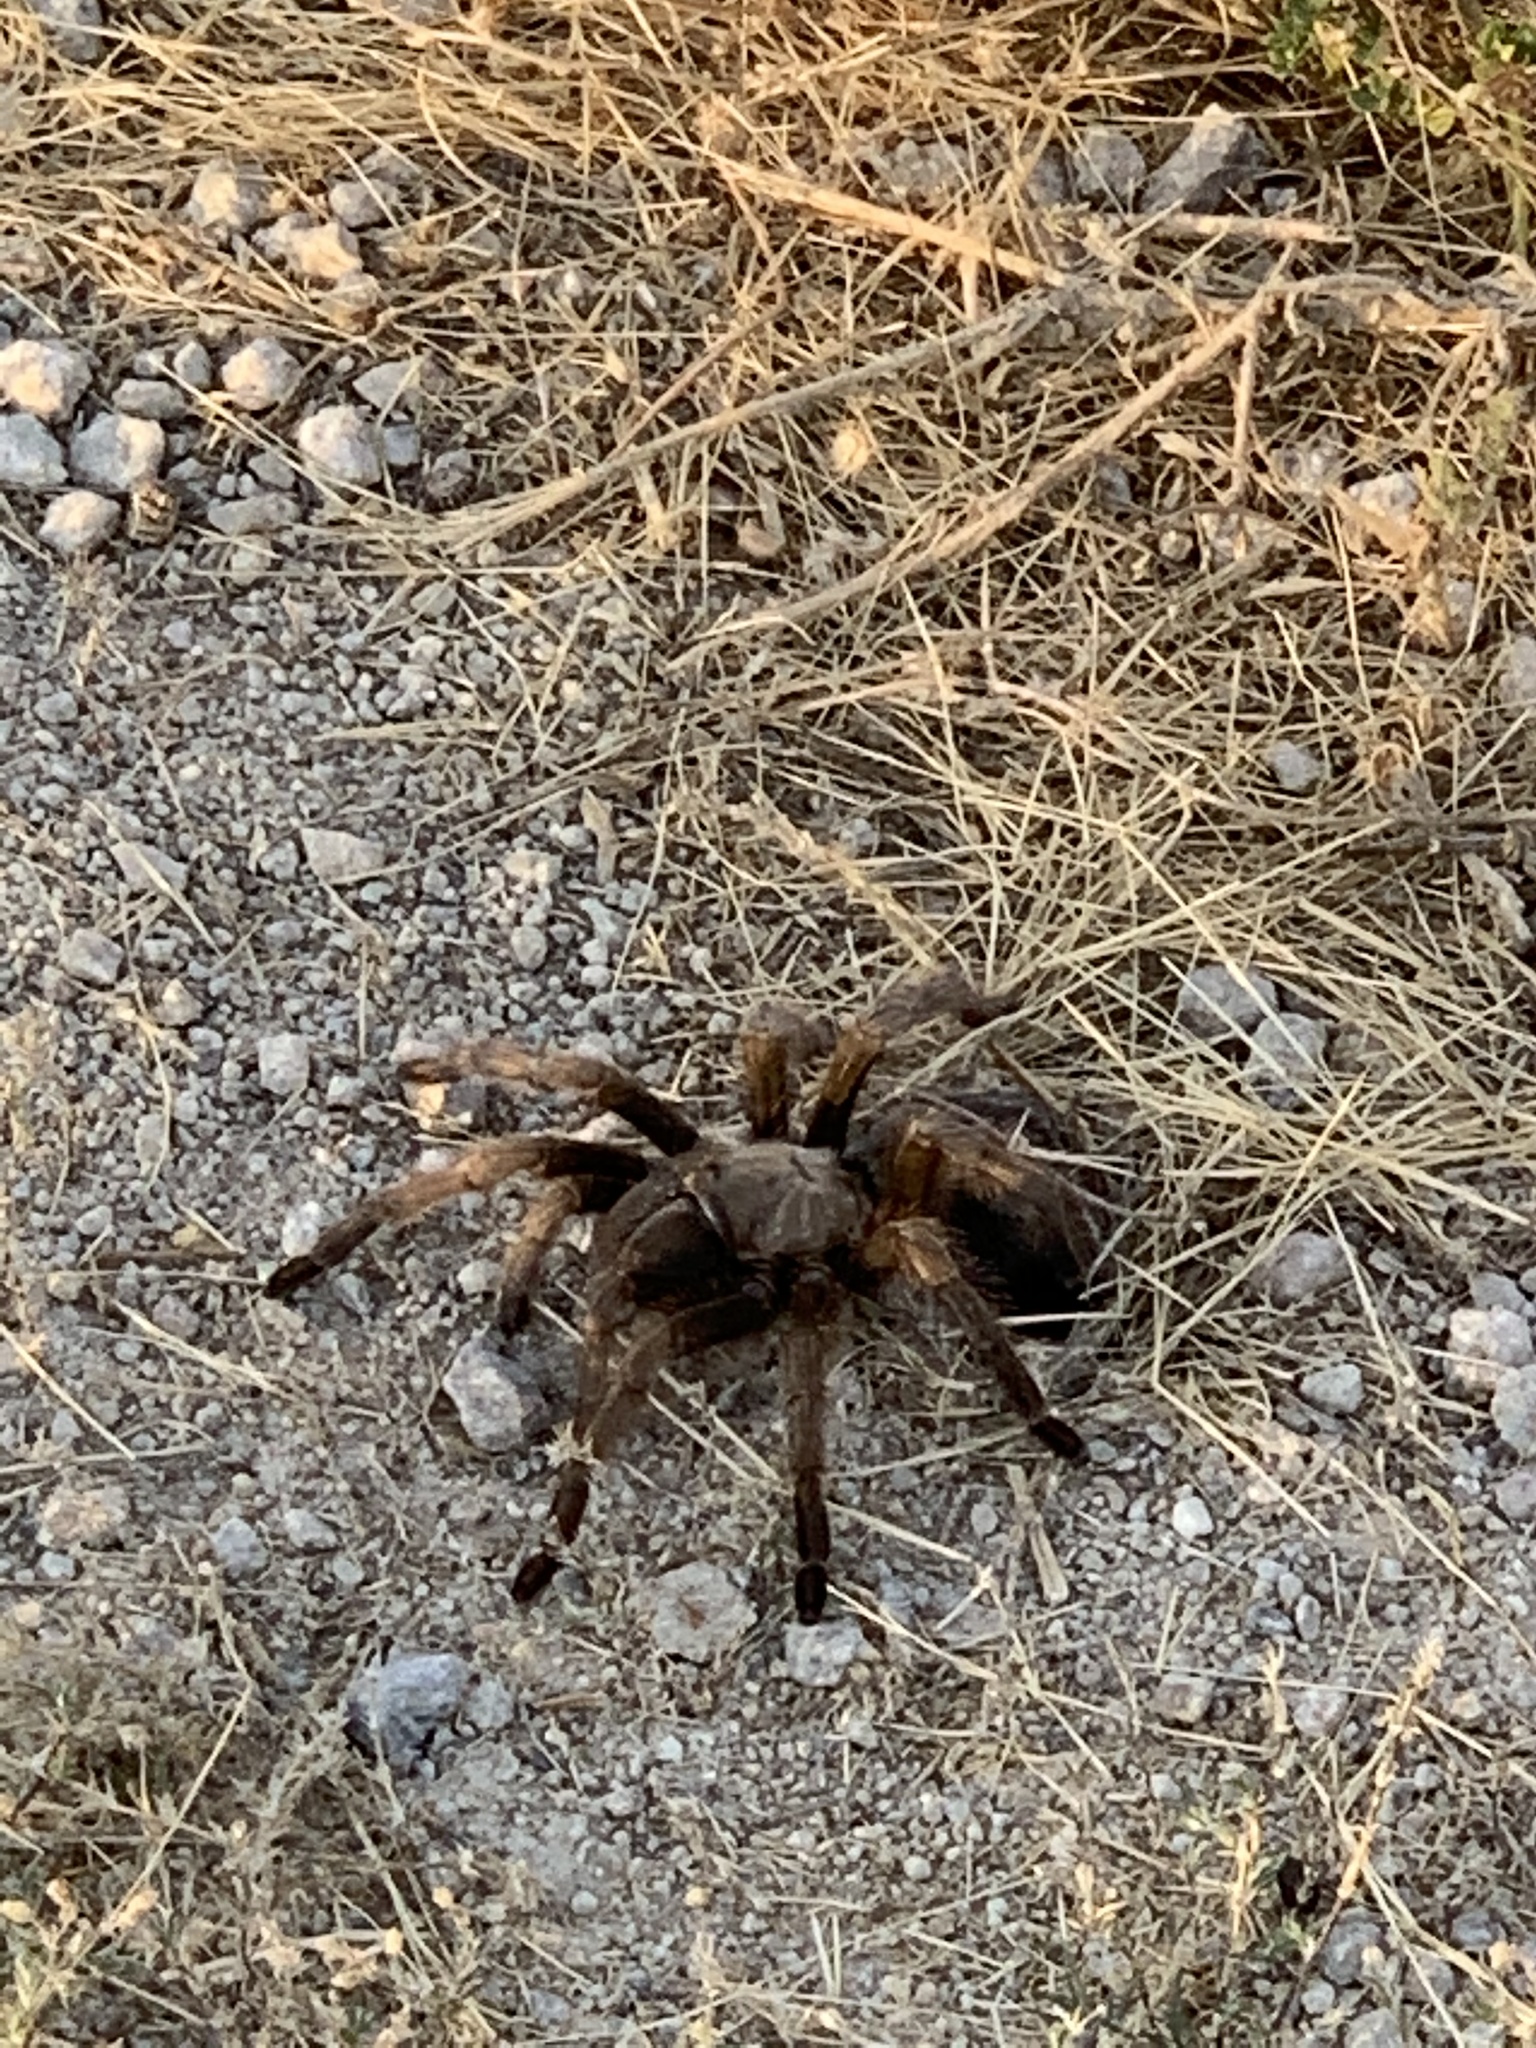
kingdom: Animalia
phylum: Arthropoda
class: Arachnida
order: Araneae
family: Theraphosidae
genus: Aphonopelma
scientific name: Aphonopelma iodius
